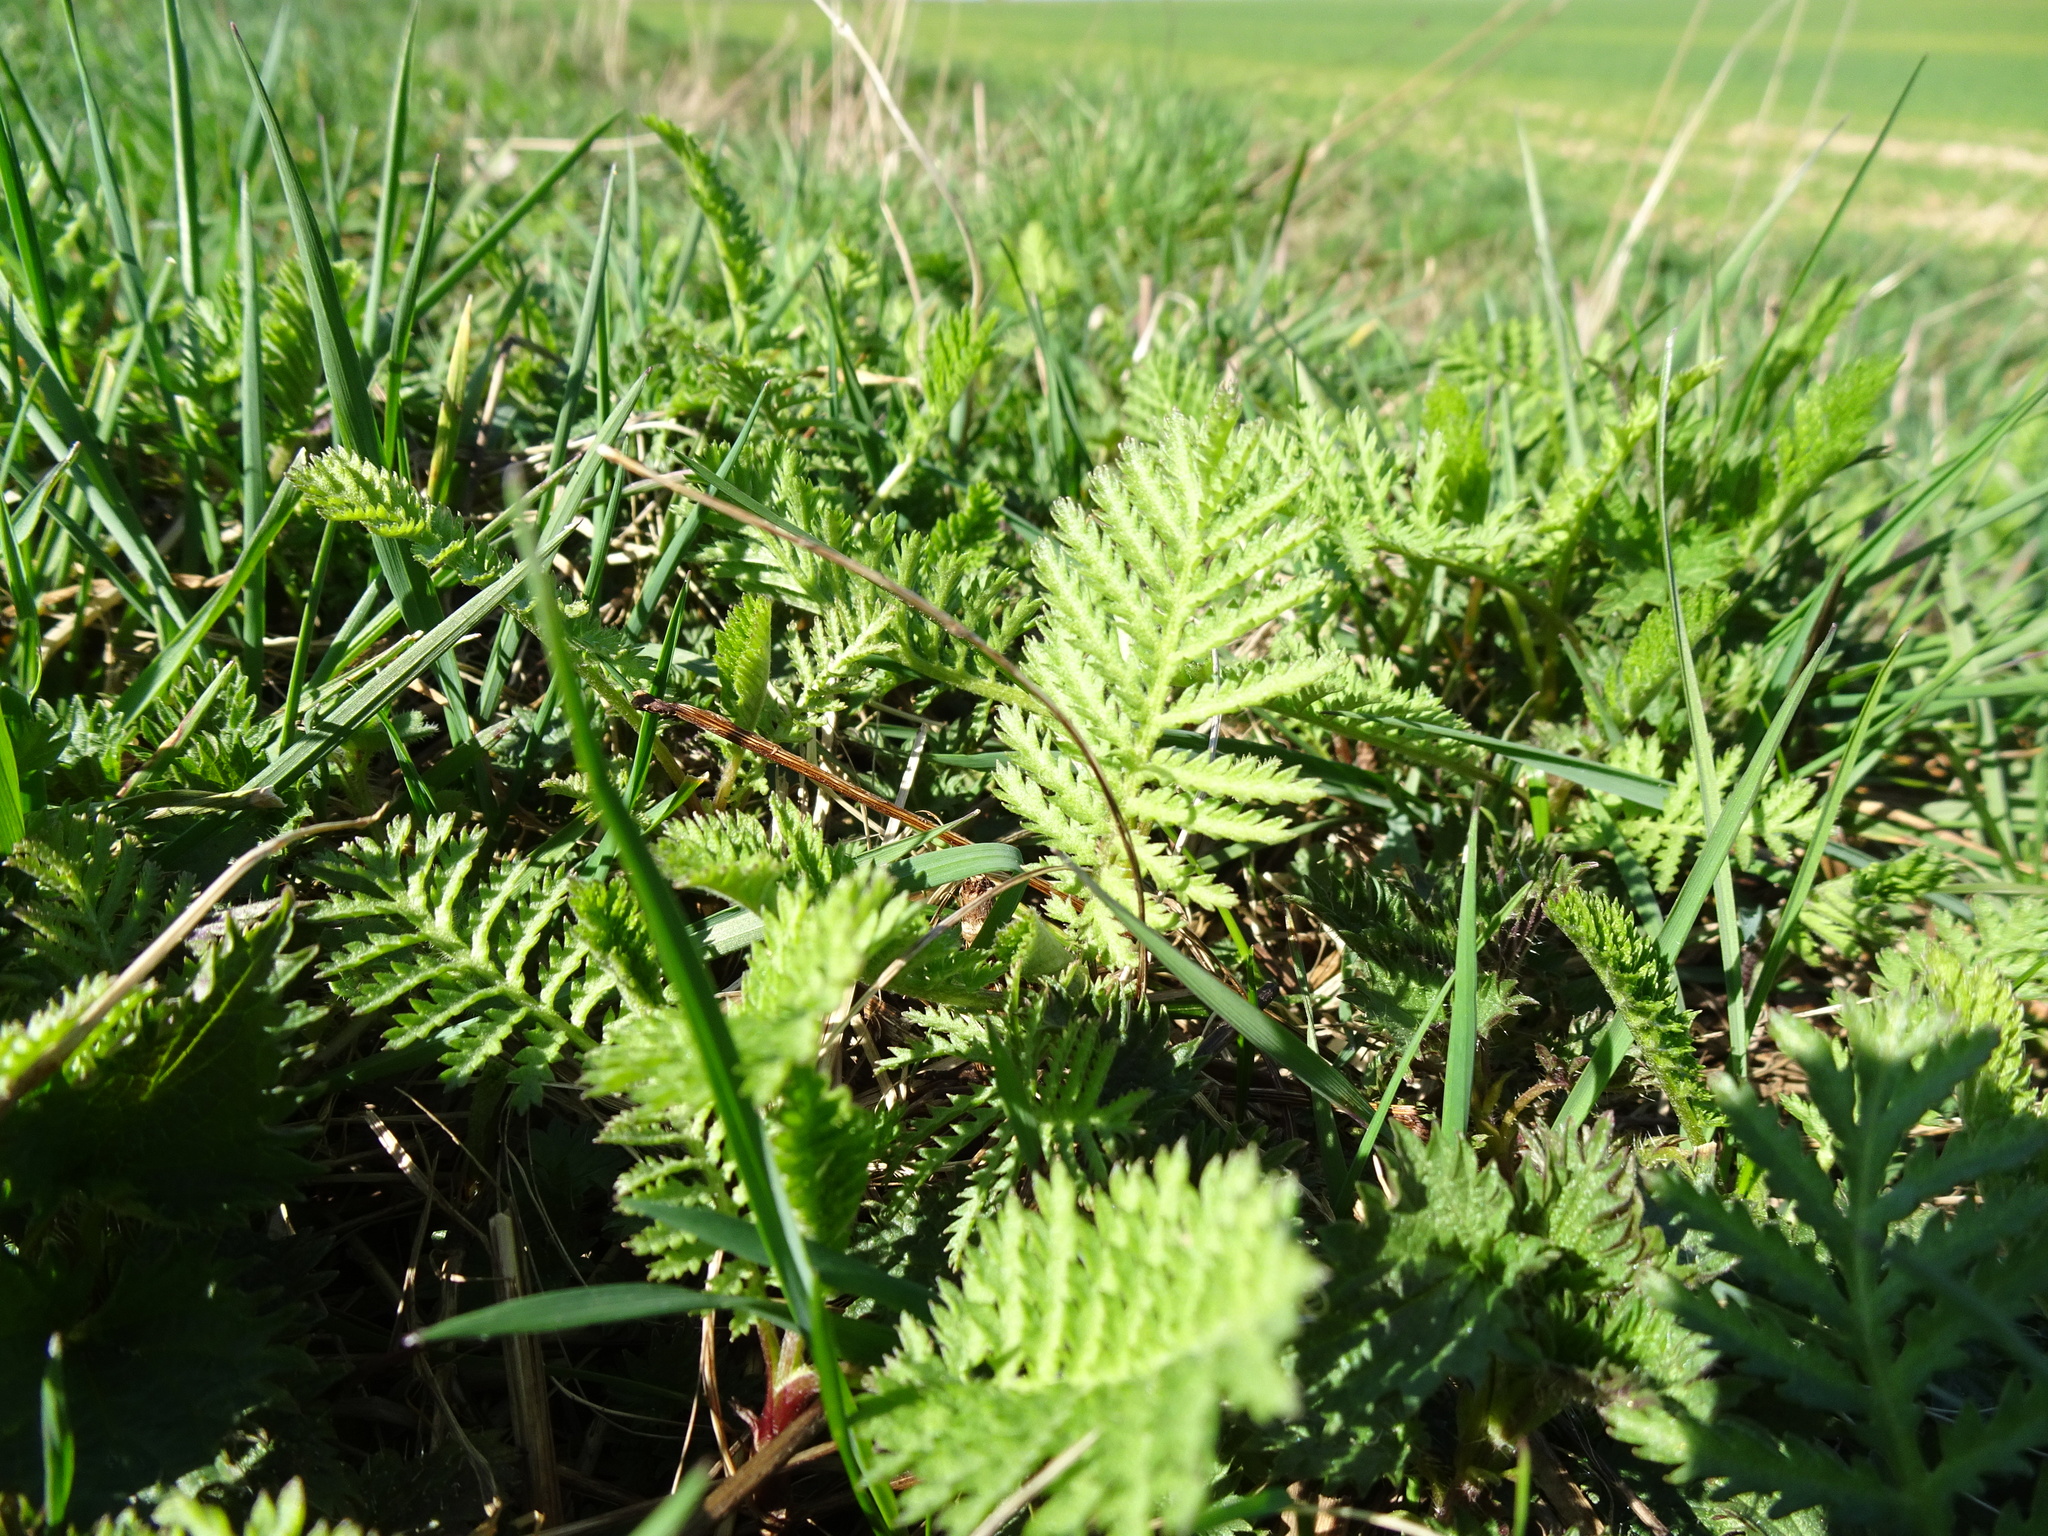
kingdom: Plantae
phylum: Tracheophyta
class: Magnoliopsida
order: Asterales
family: Asteraceae
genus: Tanacetum
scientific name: Tanacetum vulgare
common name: Common tansy
